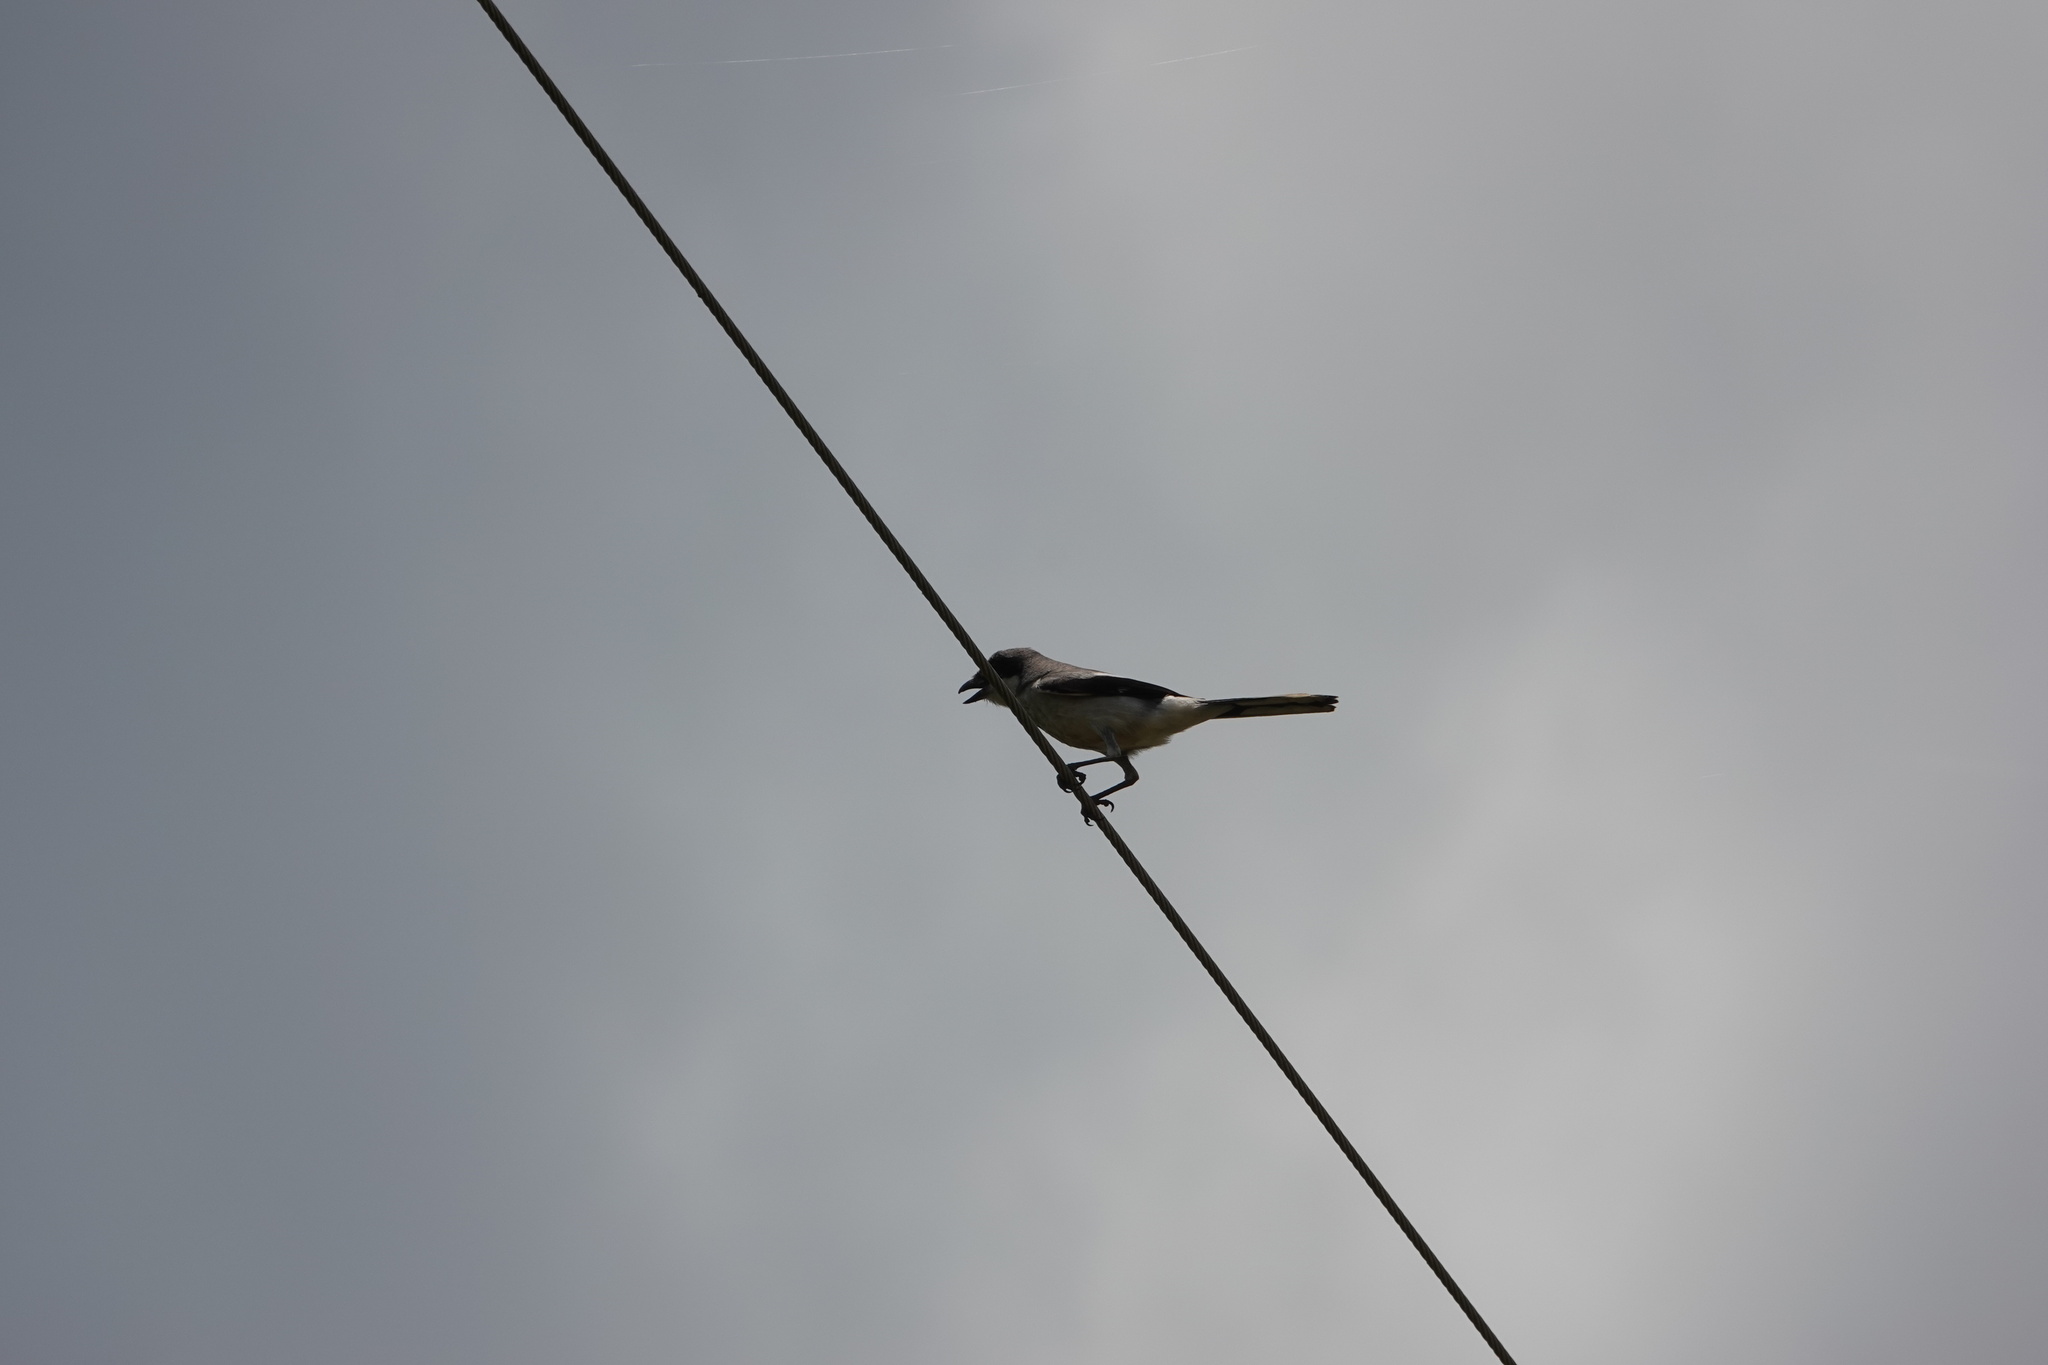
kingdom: Animalia
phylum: Chordata
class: Aves
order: Passeriformes
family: Laniidae
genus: Lanius
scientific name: Lanius ludovicianus
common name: Loggerhead shrike
